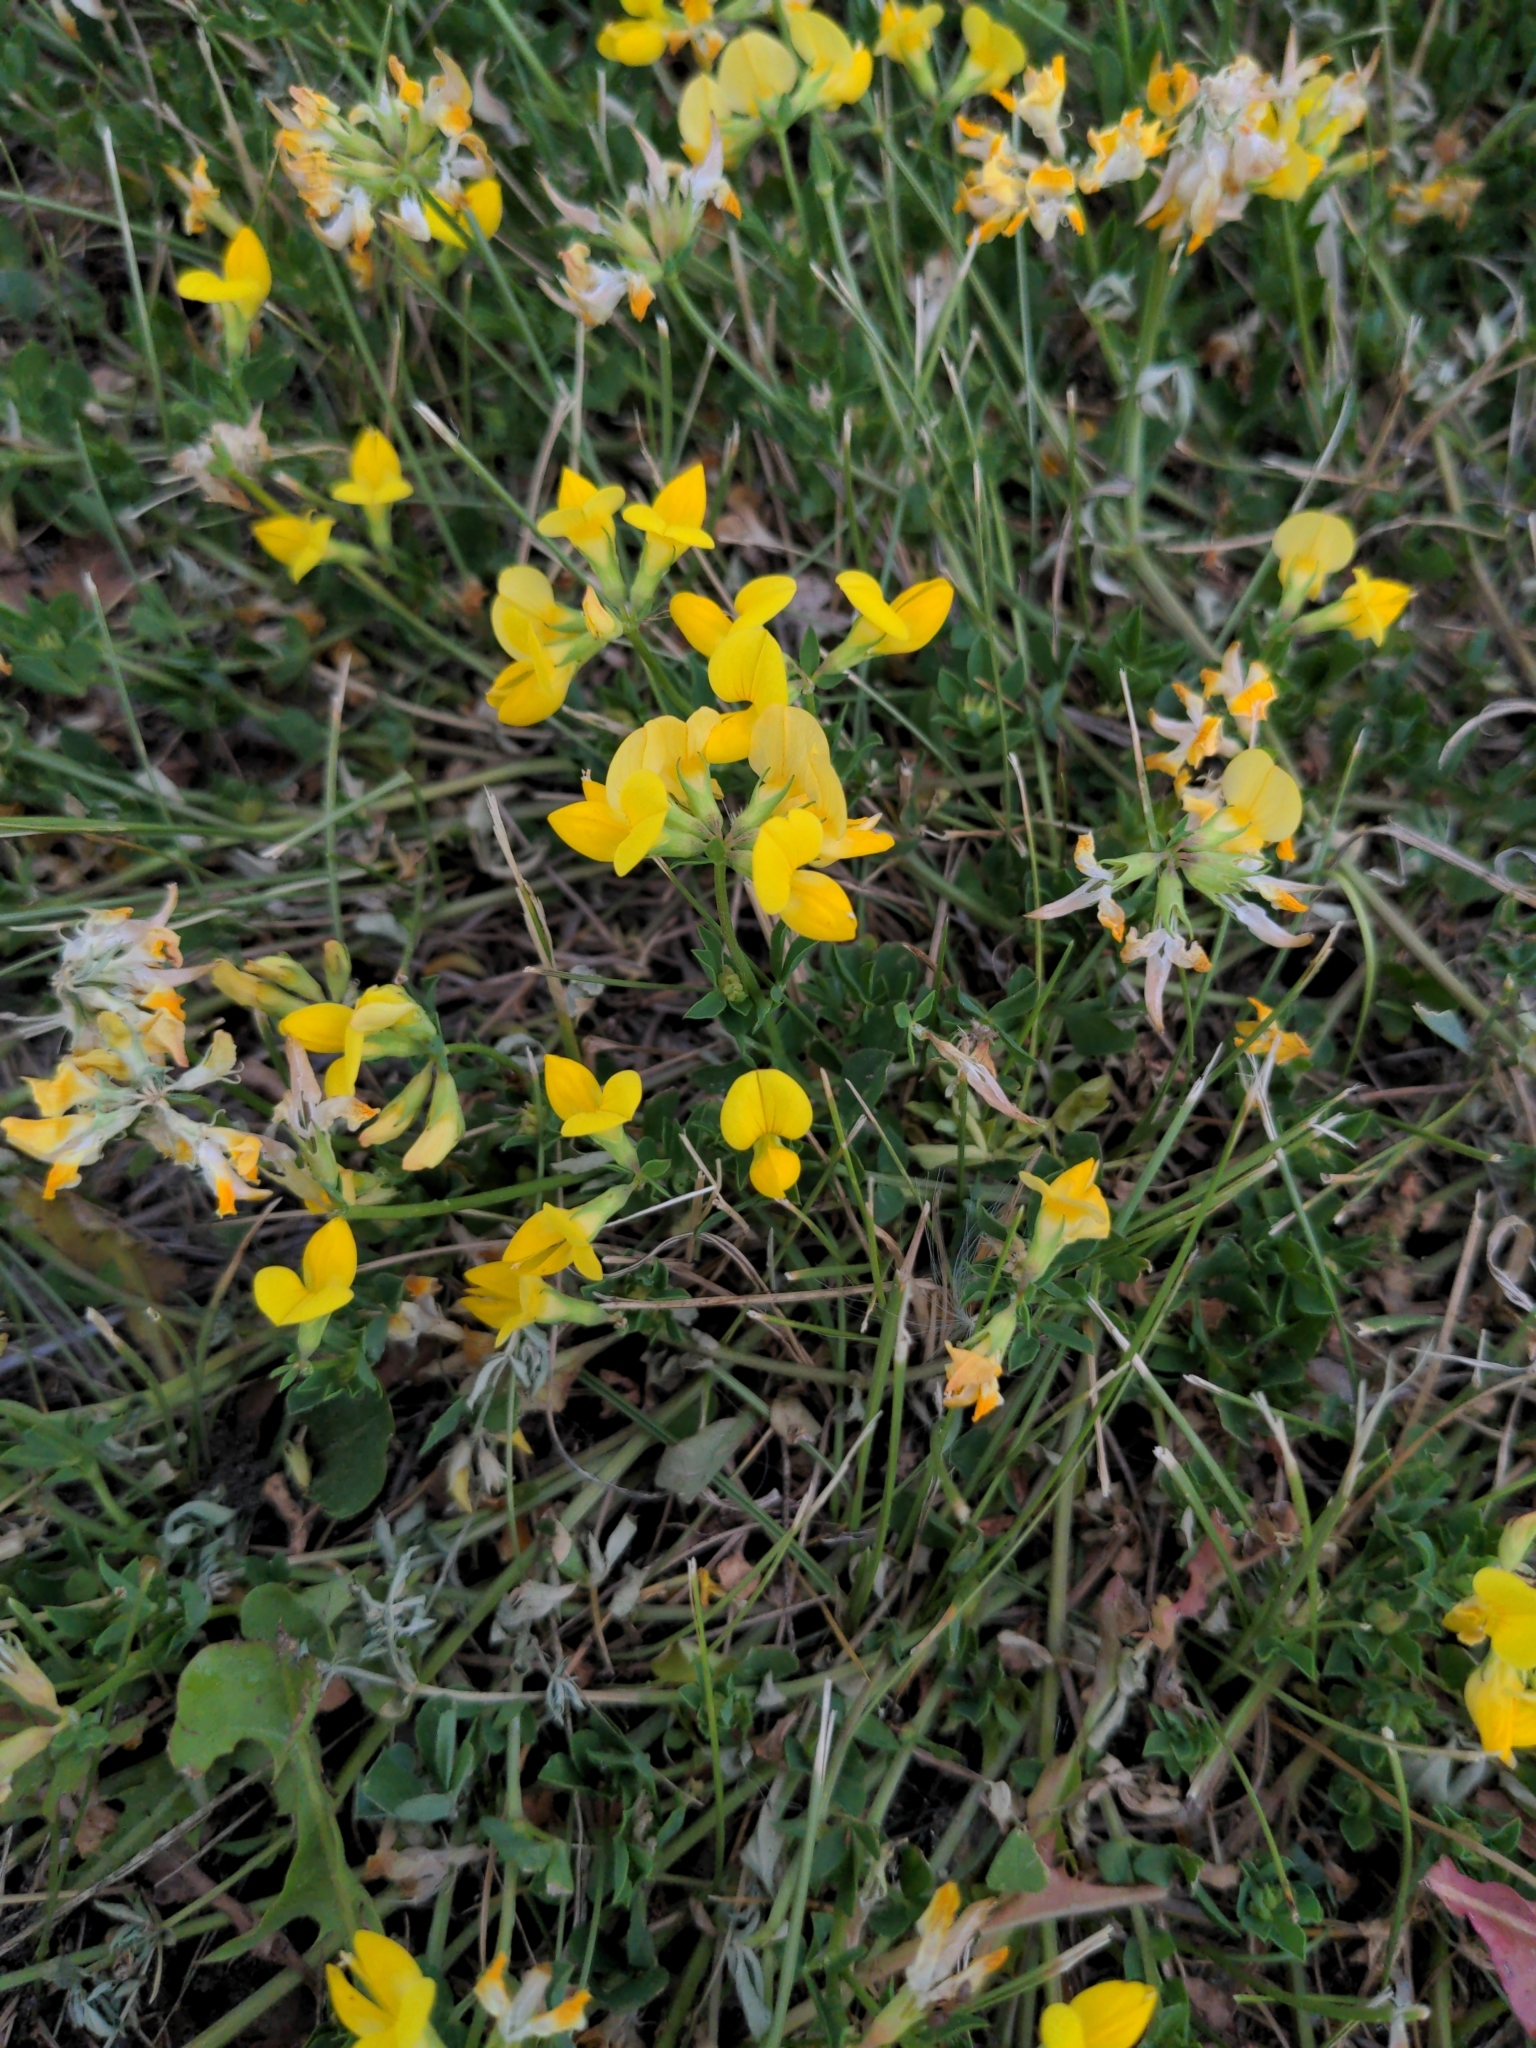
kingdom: Plantae
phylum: Tracheophyta
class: Magnoliopsida
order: Fabales
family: Fabaceae
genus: Lotus
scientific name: Lotus corniculatus
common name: Common bird's-foot-trefoil
